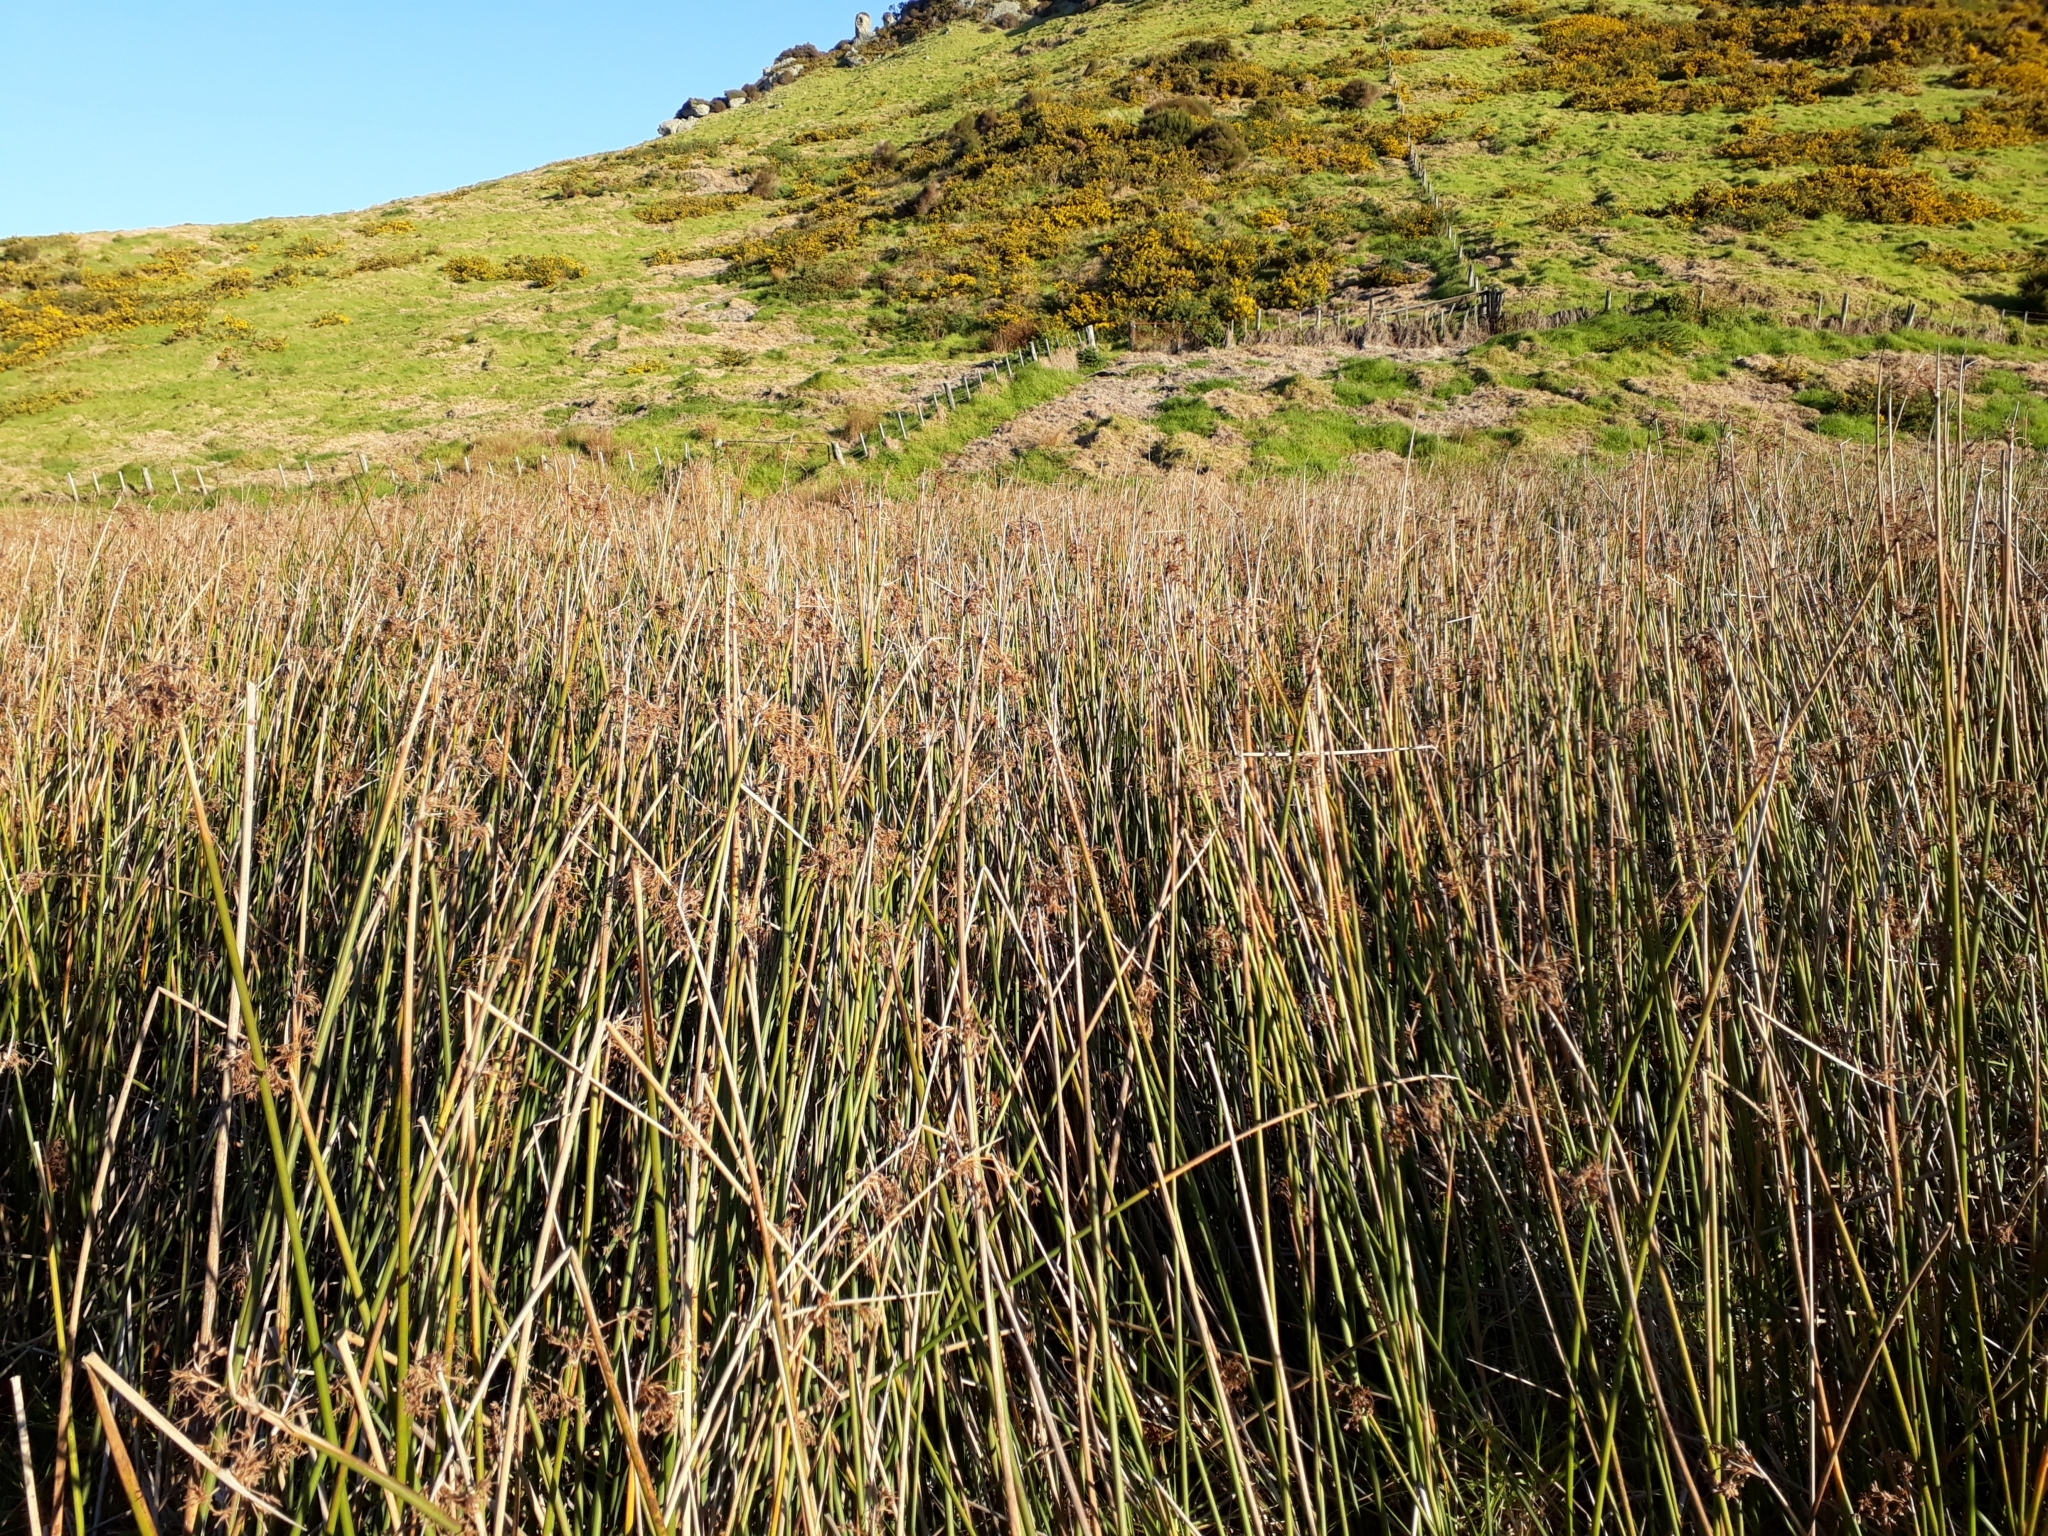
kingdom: Plantae
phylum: Tracheophyta
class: Liliopsida
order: Poales
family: Cyperaceae
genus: Schoenoplectus
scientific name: Schoenoplectus tabernaemontani
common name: Grey club-rush
